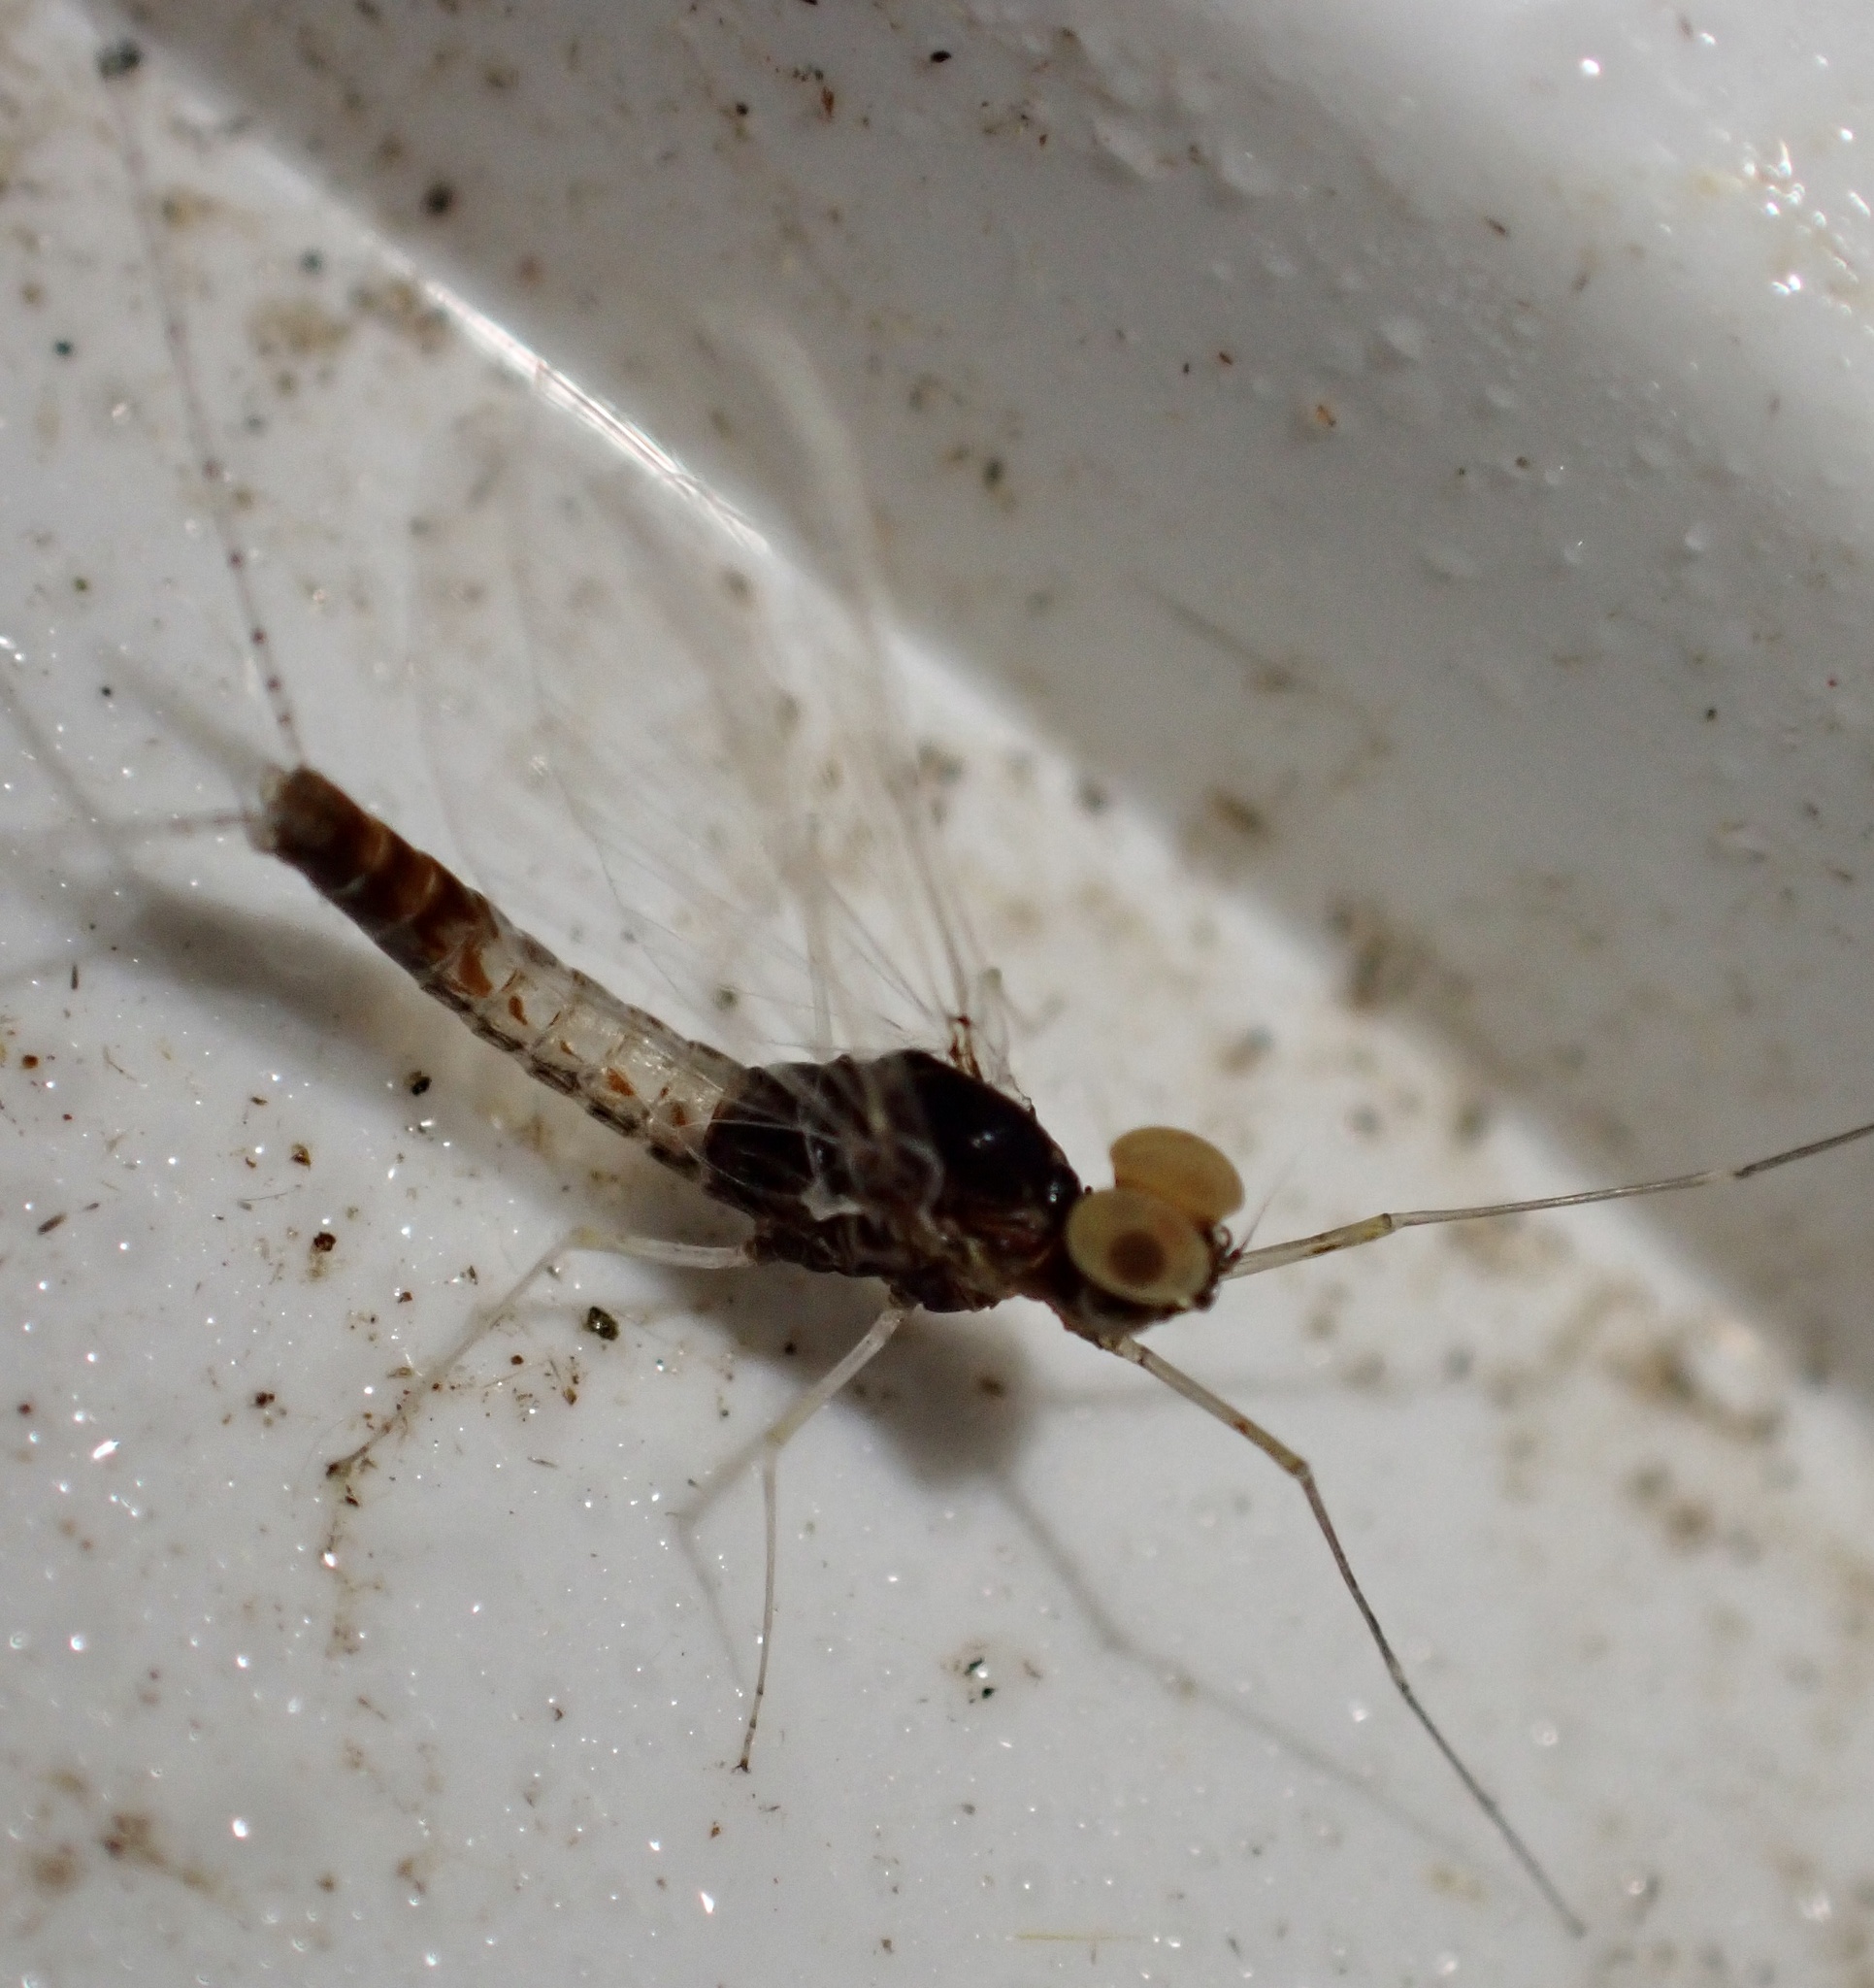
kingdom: Animalia
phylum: Arthropoda
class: Insecta
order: Ephemeroptera
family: Baetidae
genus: Cloeon
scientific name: Cloeon dipterum
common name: Pond olive
